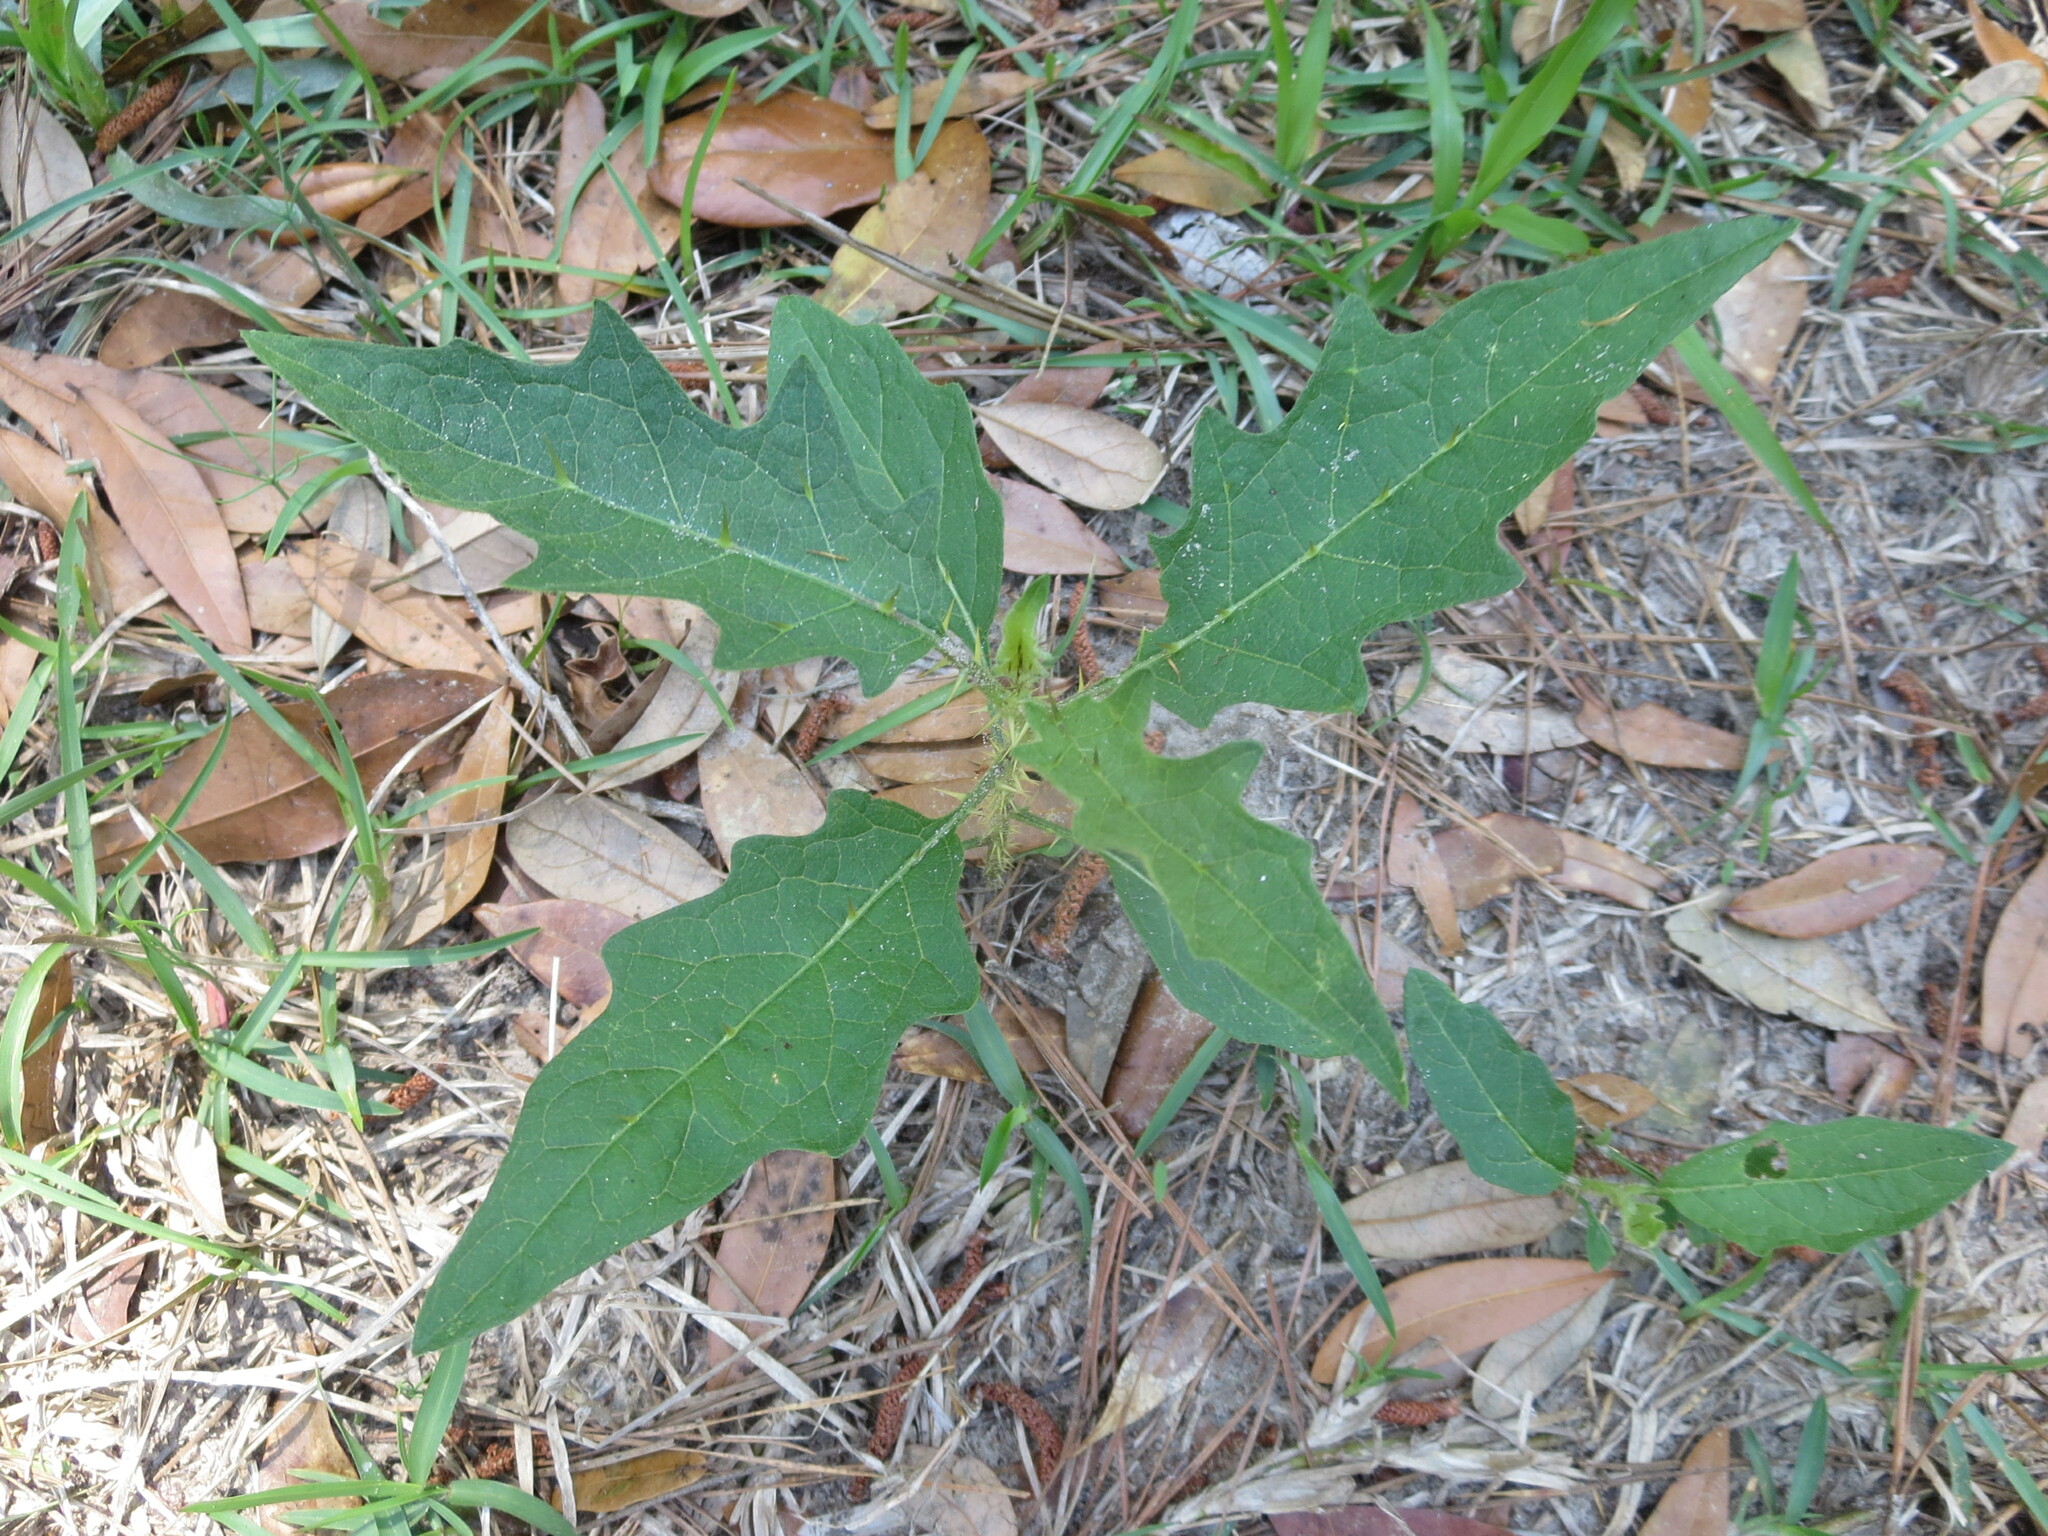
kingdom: Plantae
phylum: Tracheophyta
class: Magnoliopsida
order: Solanales
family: Solanaceae
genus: Solanum
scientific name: Solanum carolinense
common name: Horse-nettle
